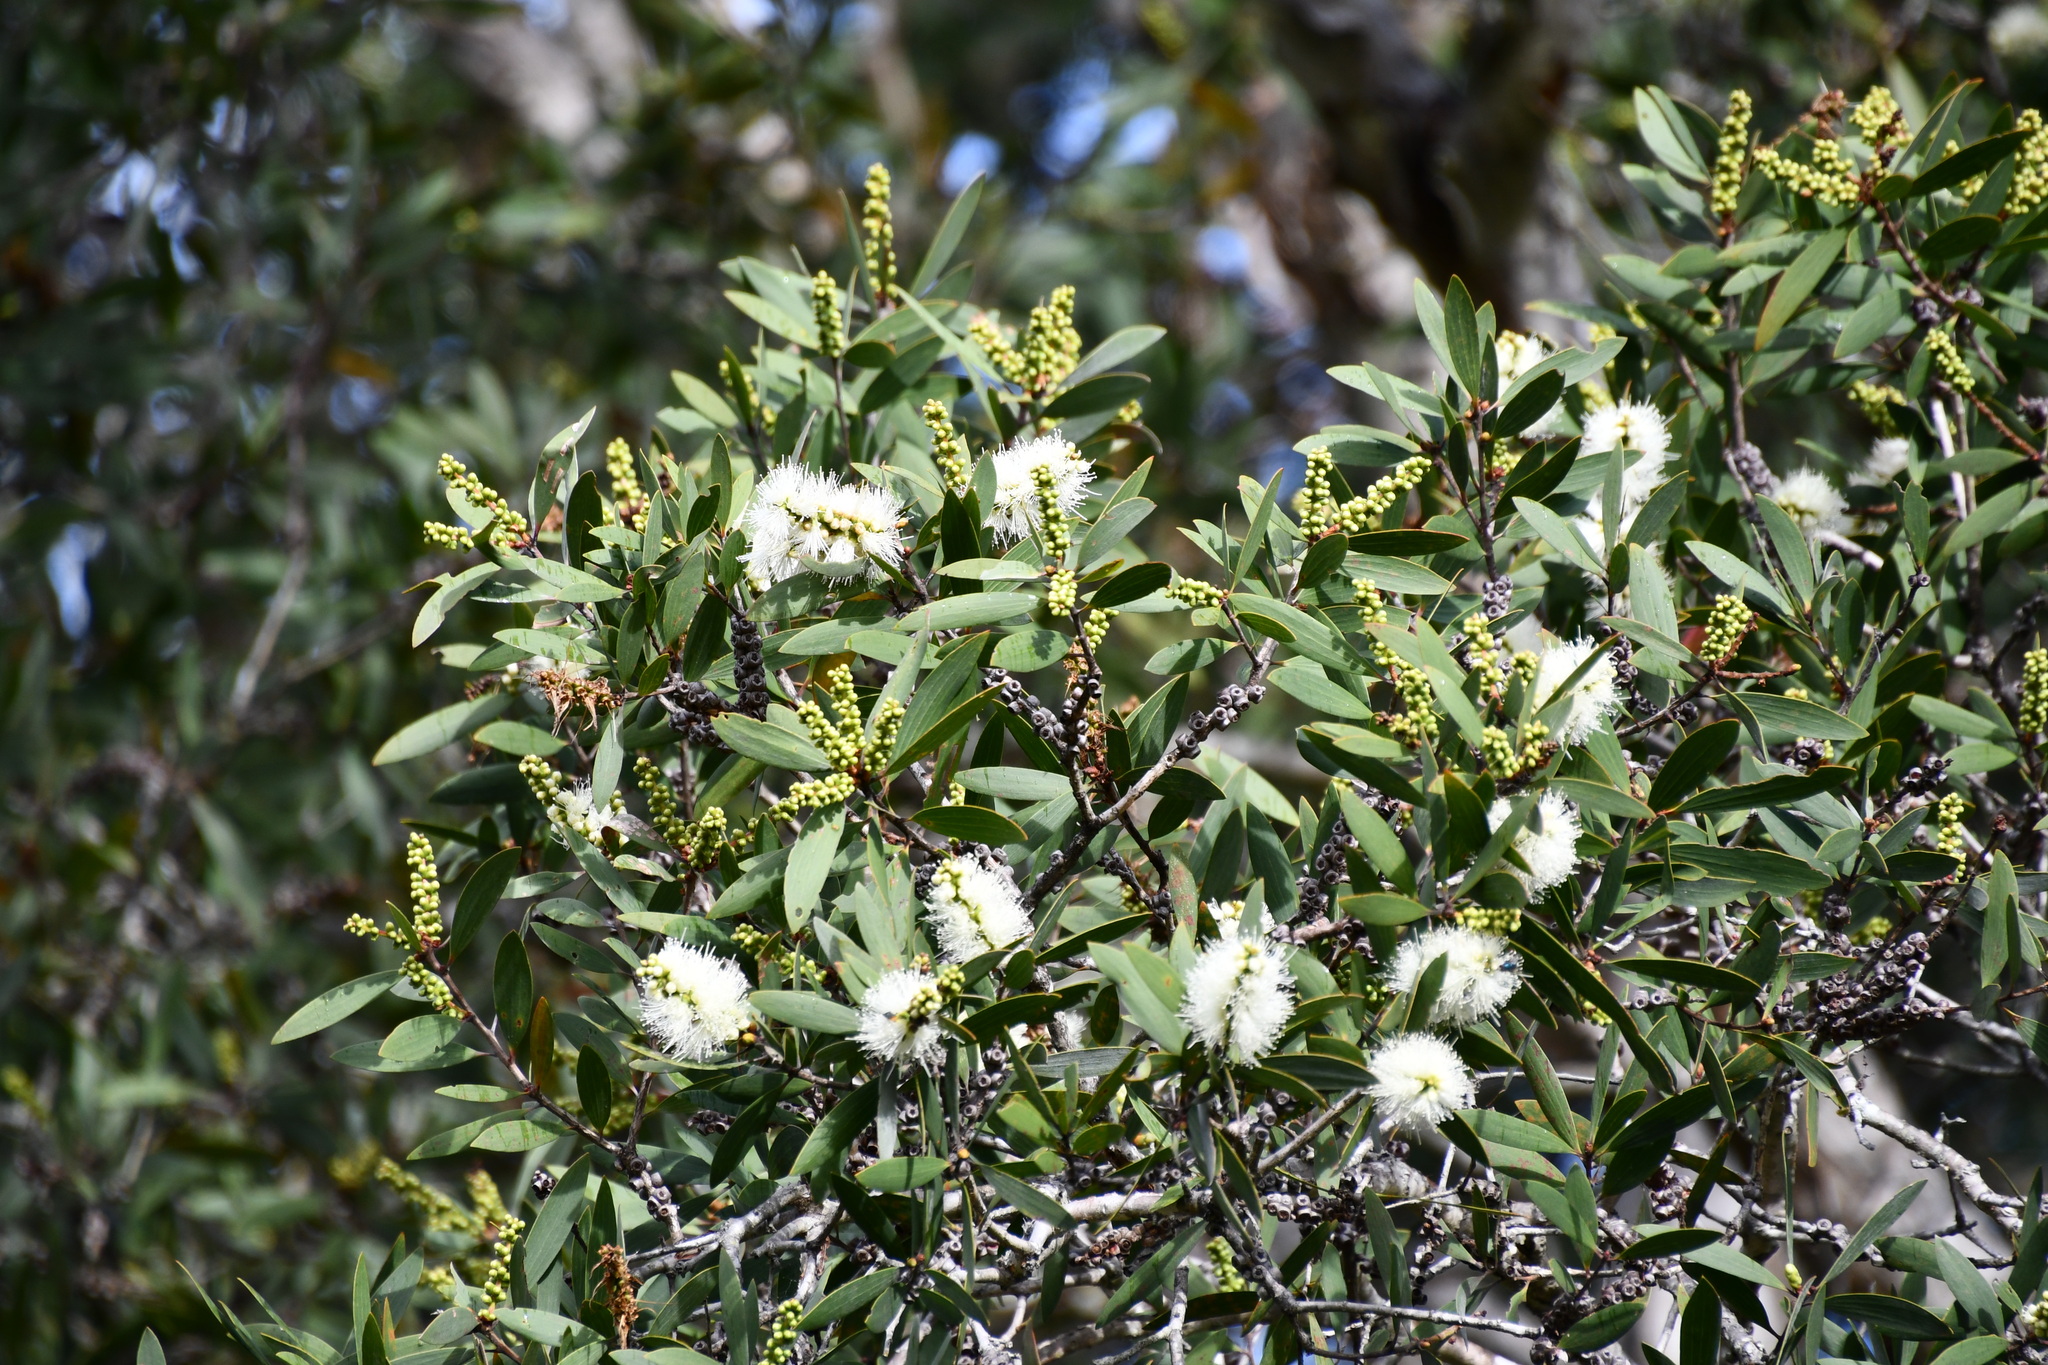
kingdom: Plantae
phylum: Tracheophyta
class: Magnoliopsida
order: Myrtales
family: Myrtaceae
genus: Melaleuca
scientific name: Melaleuca quinquenervia
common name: Punktree
